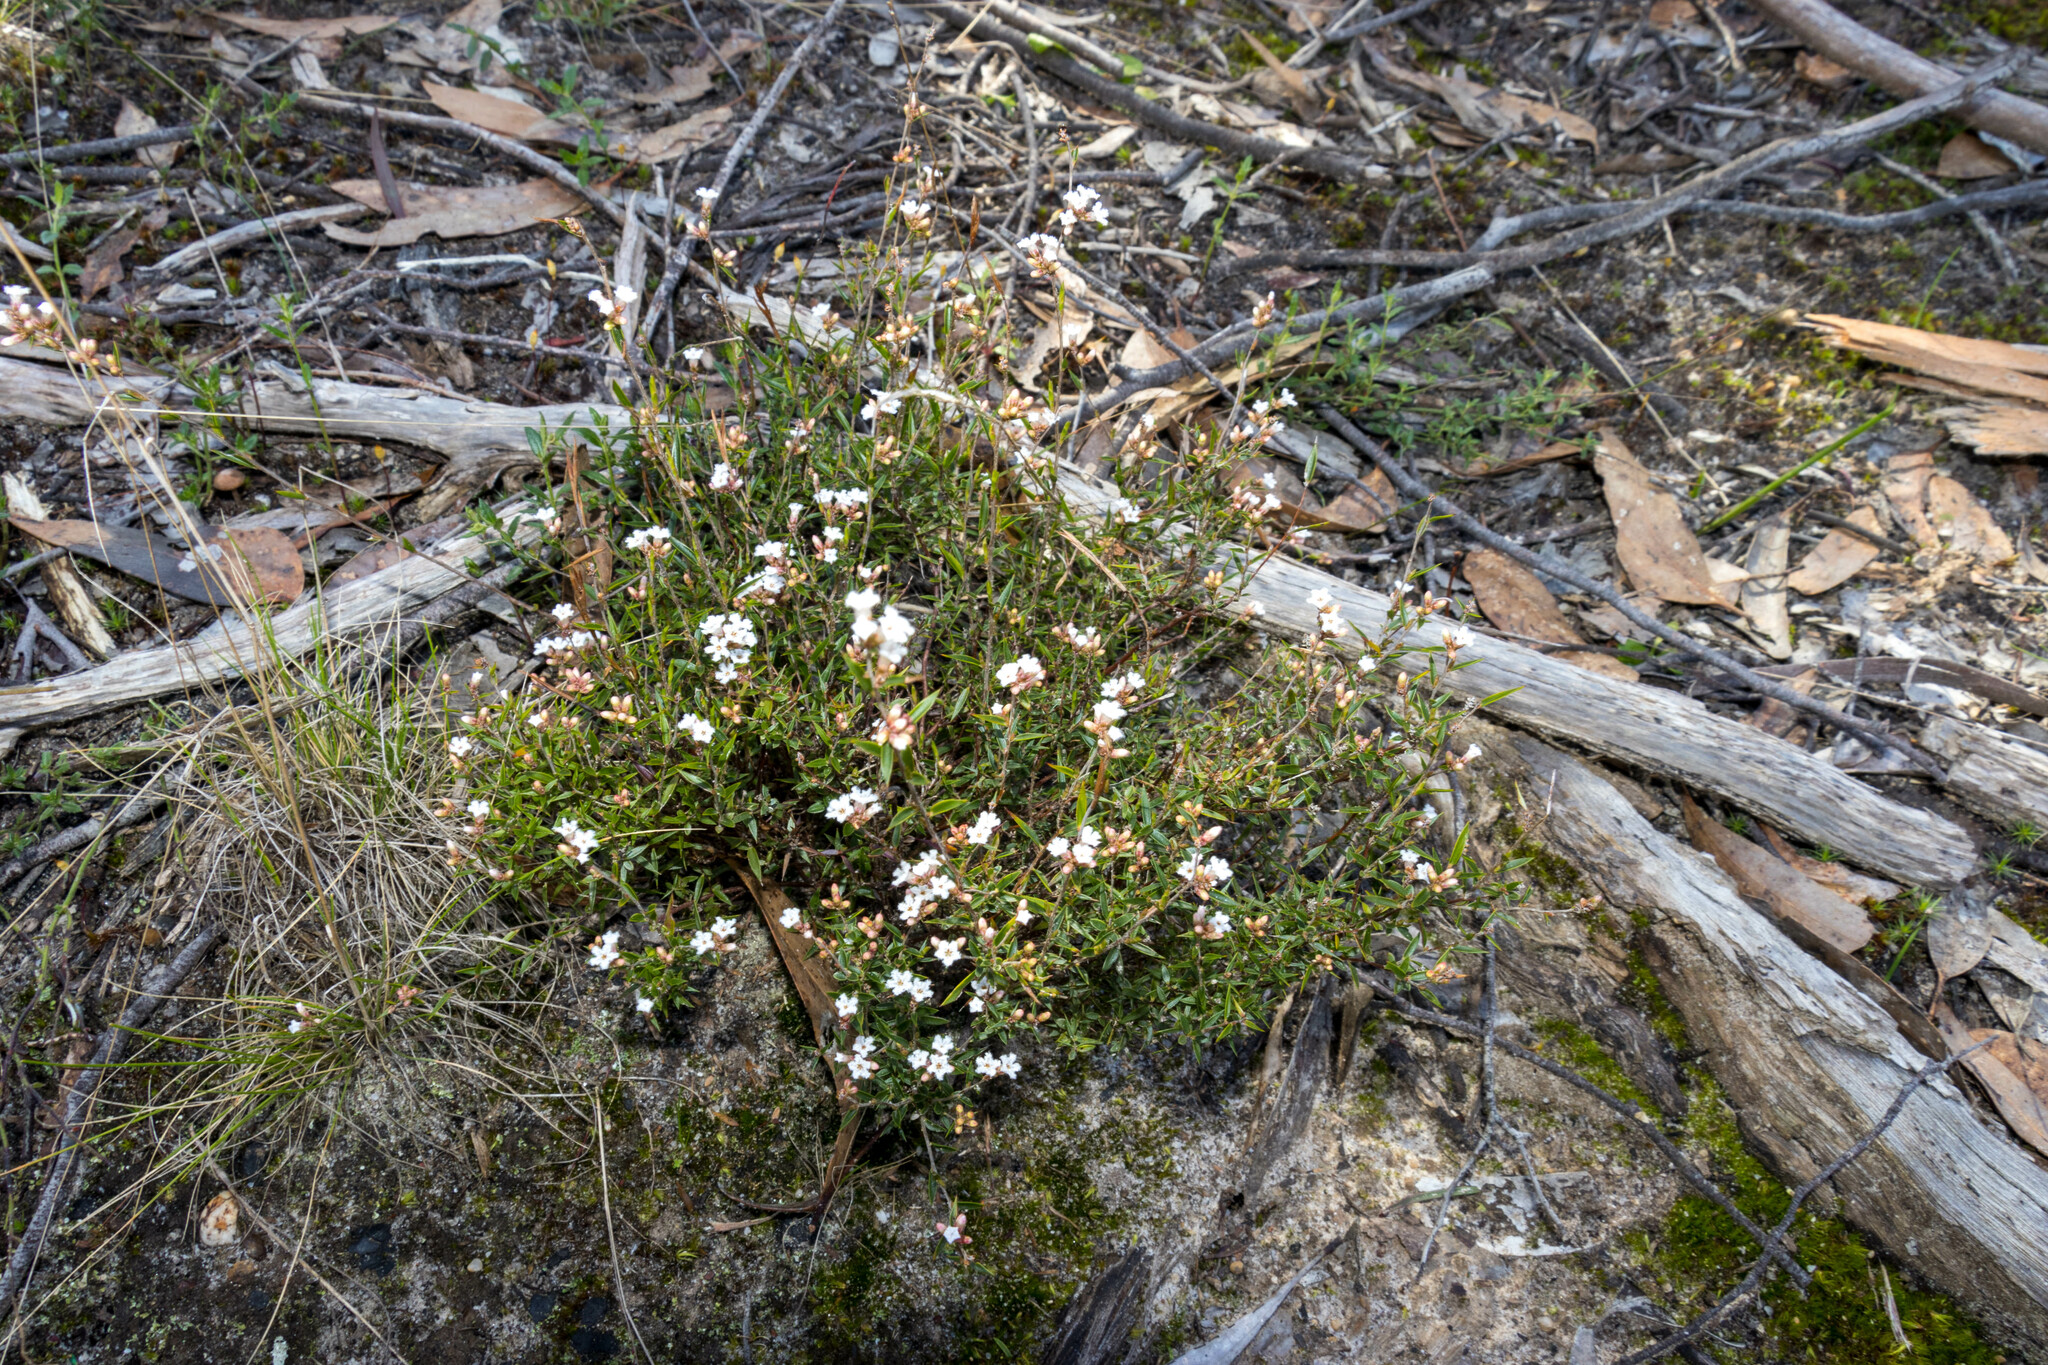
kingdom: Plantae
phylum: Tracheophyta
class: Magnoliopsida
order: Ericales
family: Ericaceae
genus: Leucopogon
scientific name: Leucopogon virgatus
